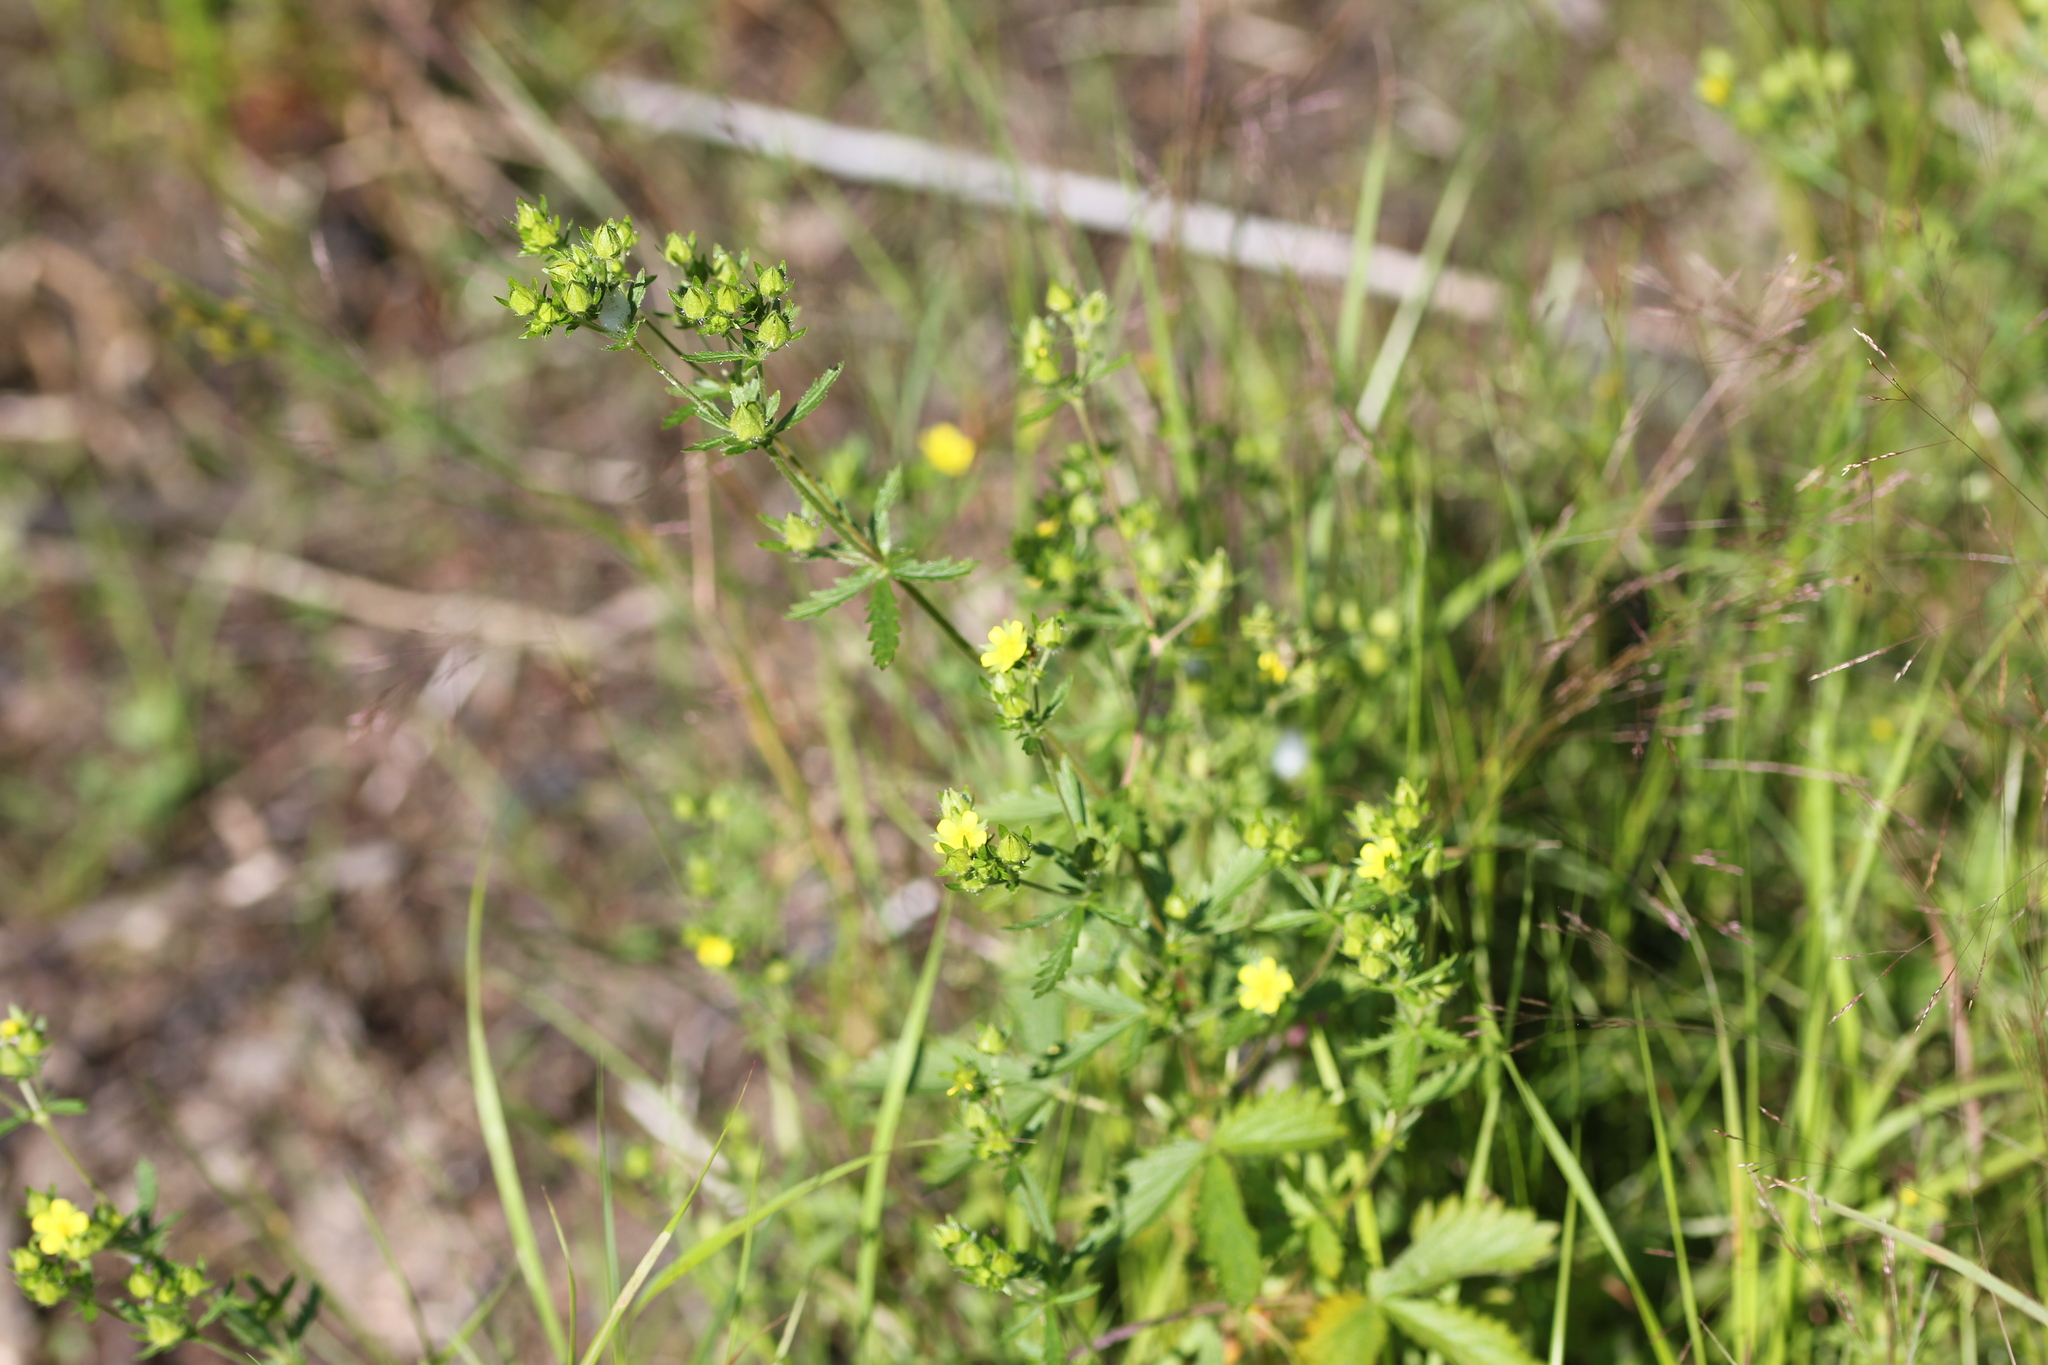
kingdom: Plantae
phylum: Tracheophyta
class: Magnoliopsida
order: Rosales
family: Rosaceae
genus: Potentilla
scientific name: Potentilla norvegica
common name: Ternate-leaved cinquefoil
